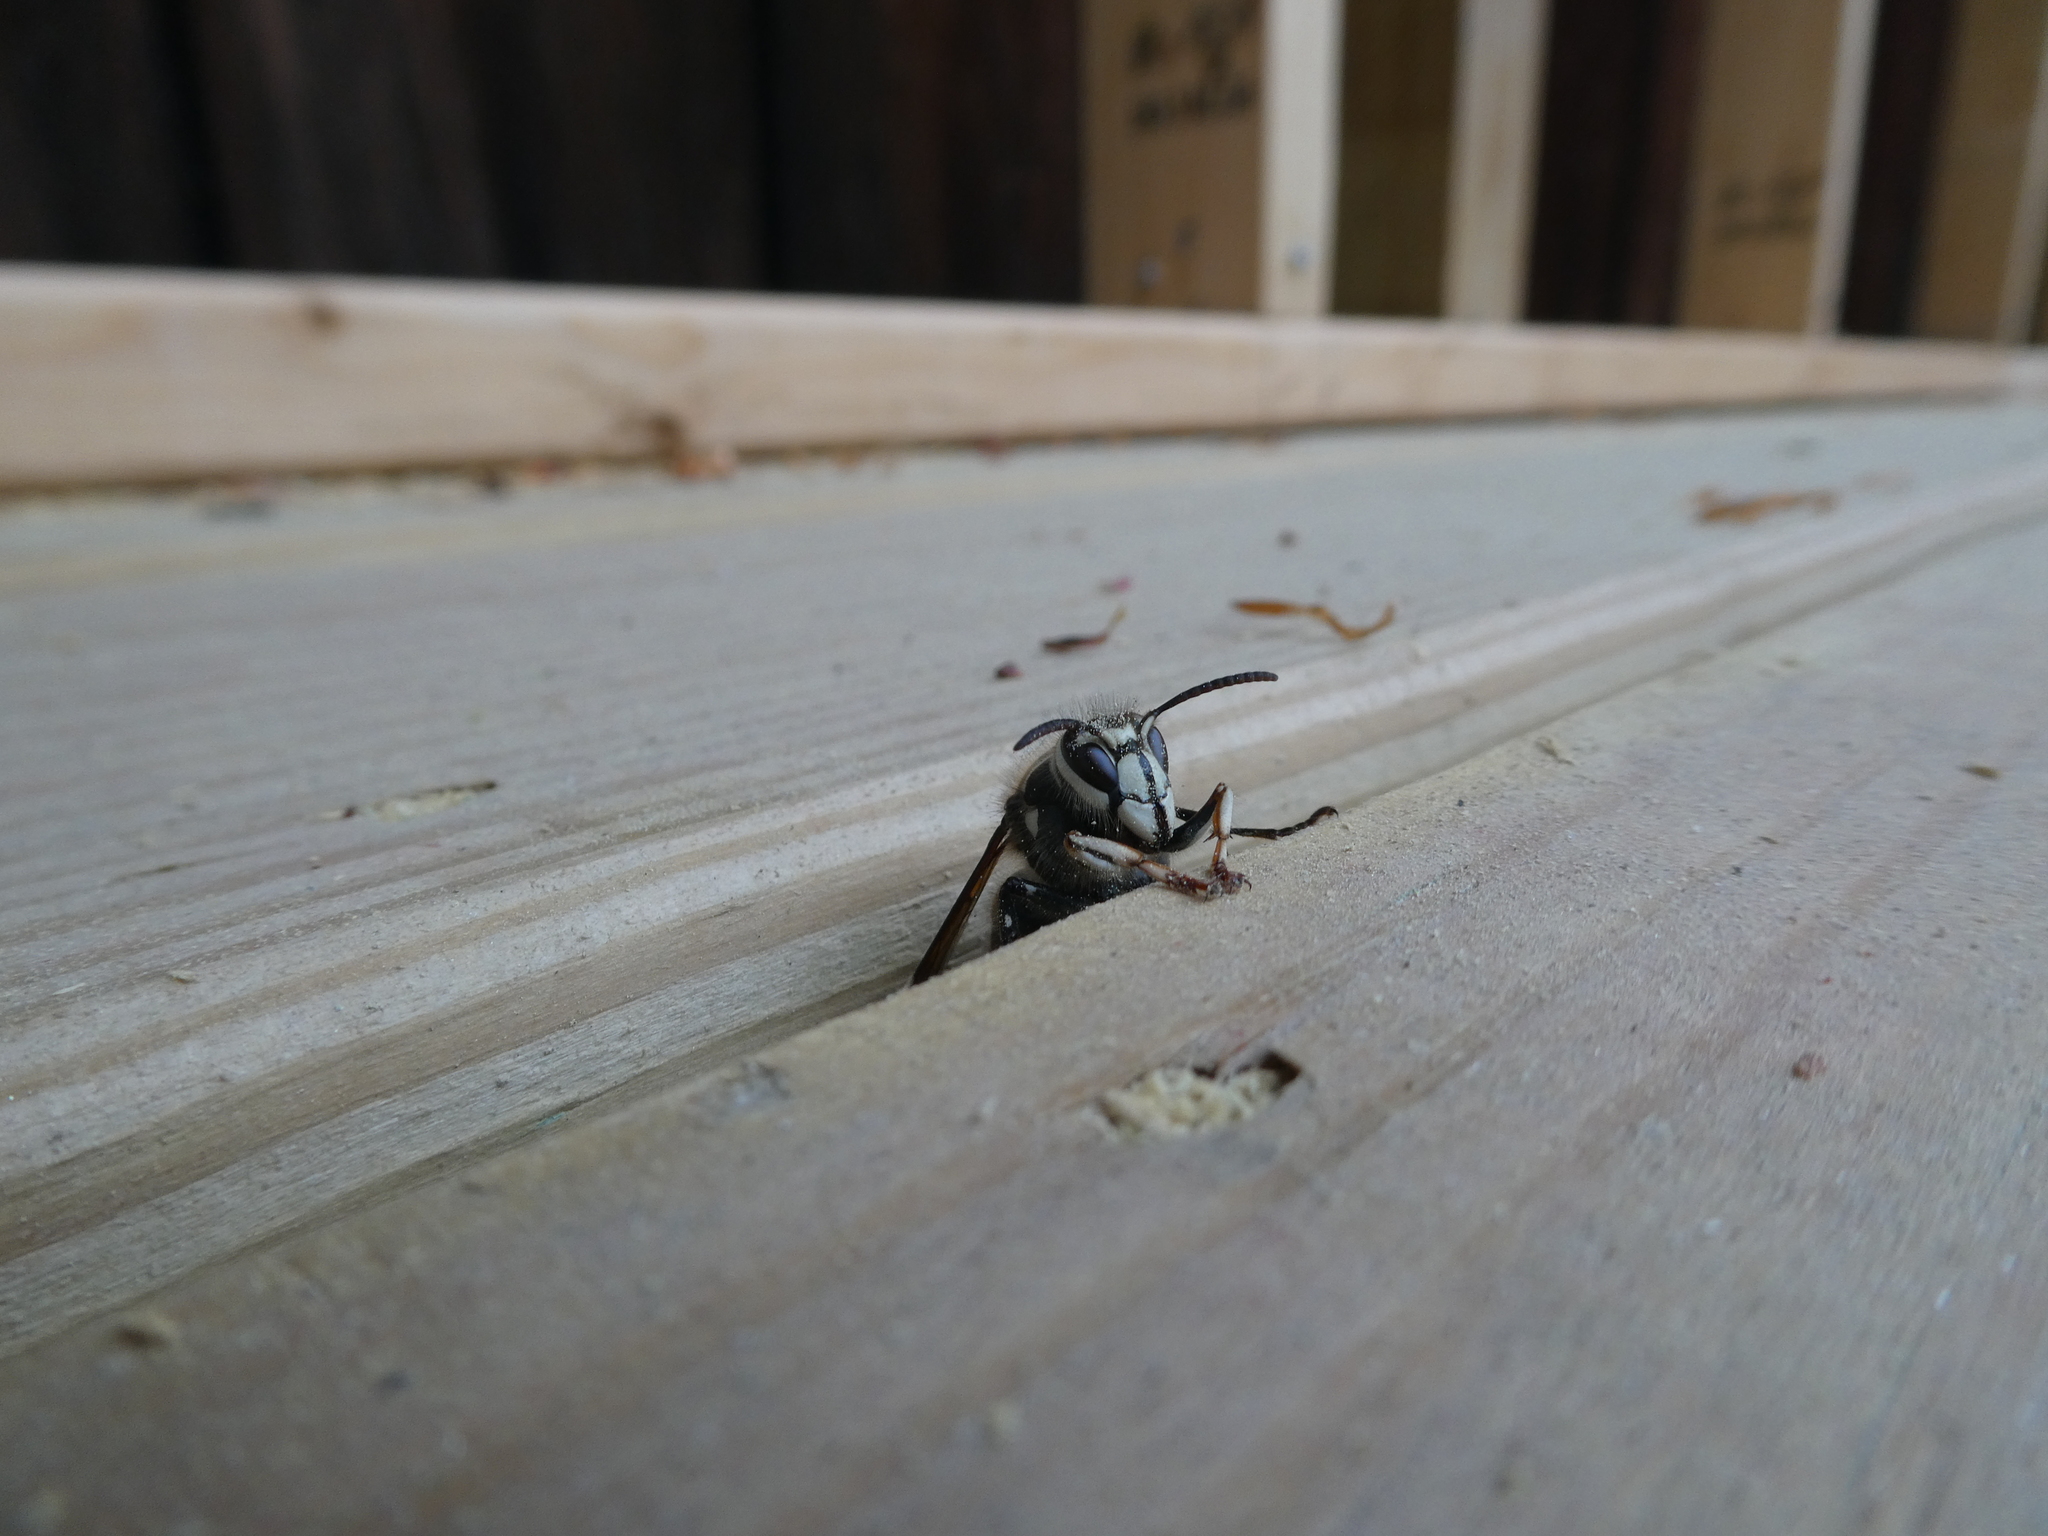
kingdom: Animalia
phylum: Arthropoda
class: Insecta
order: Hymenoptera
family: Vespidae
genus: Dolichovespula
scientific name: Dolichovespula maculata
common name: Bald-faced hornet
